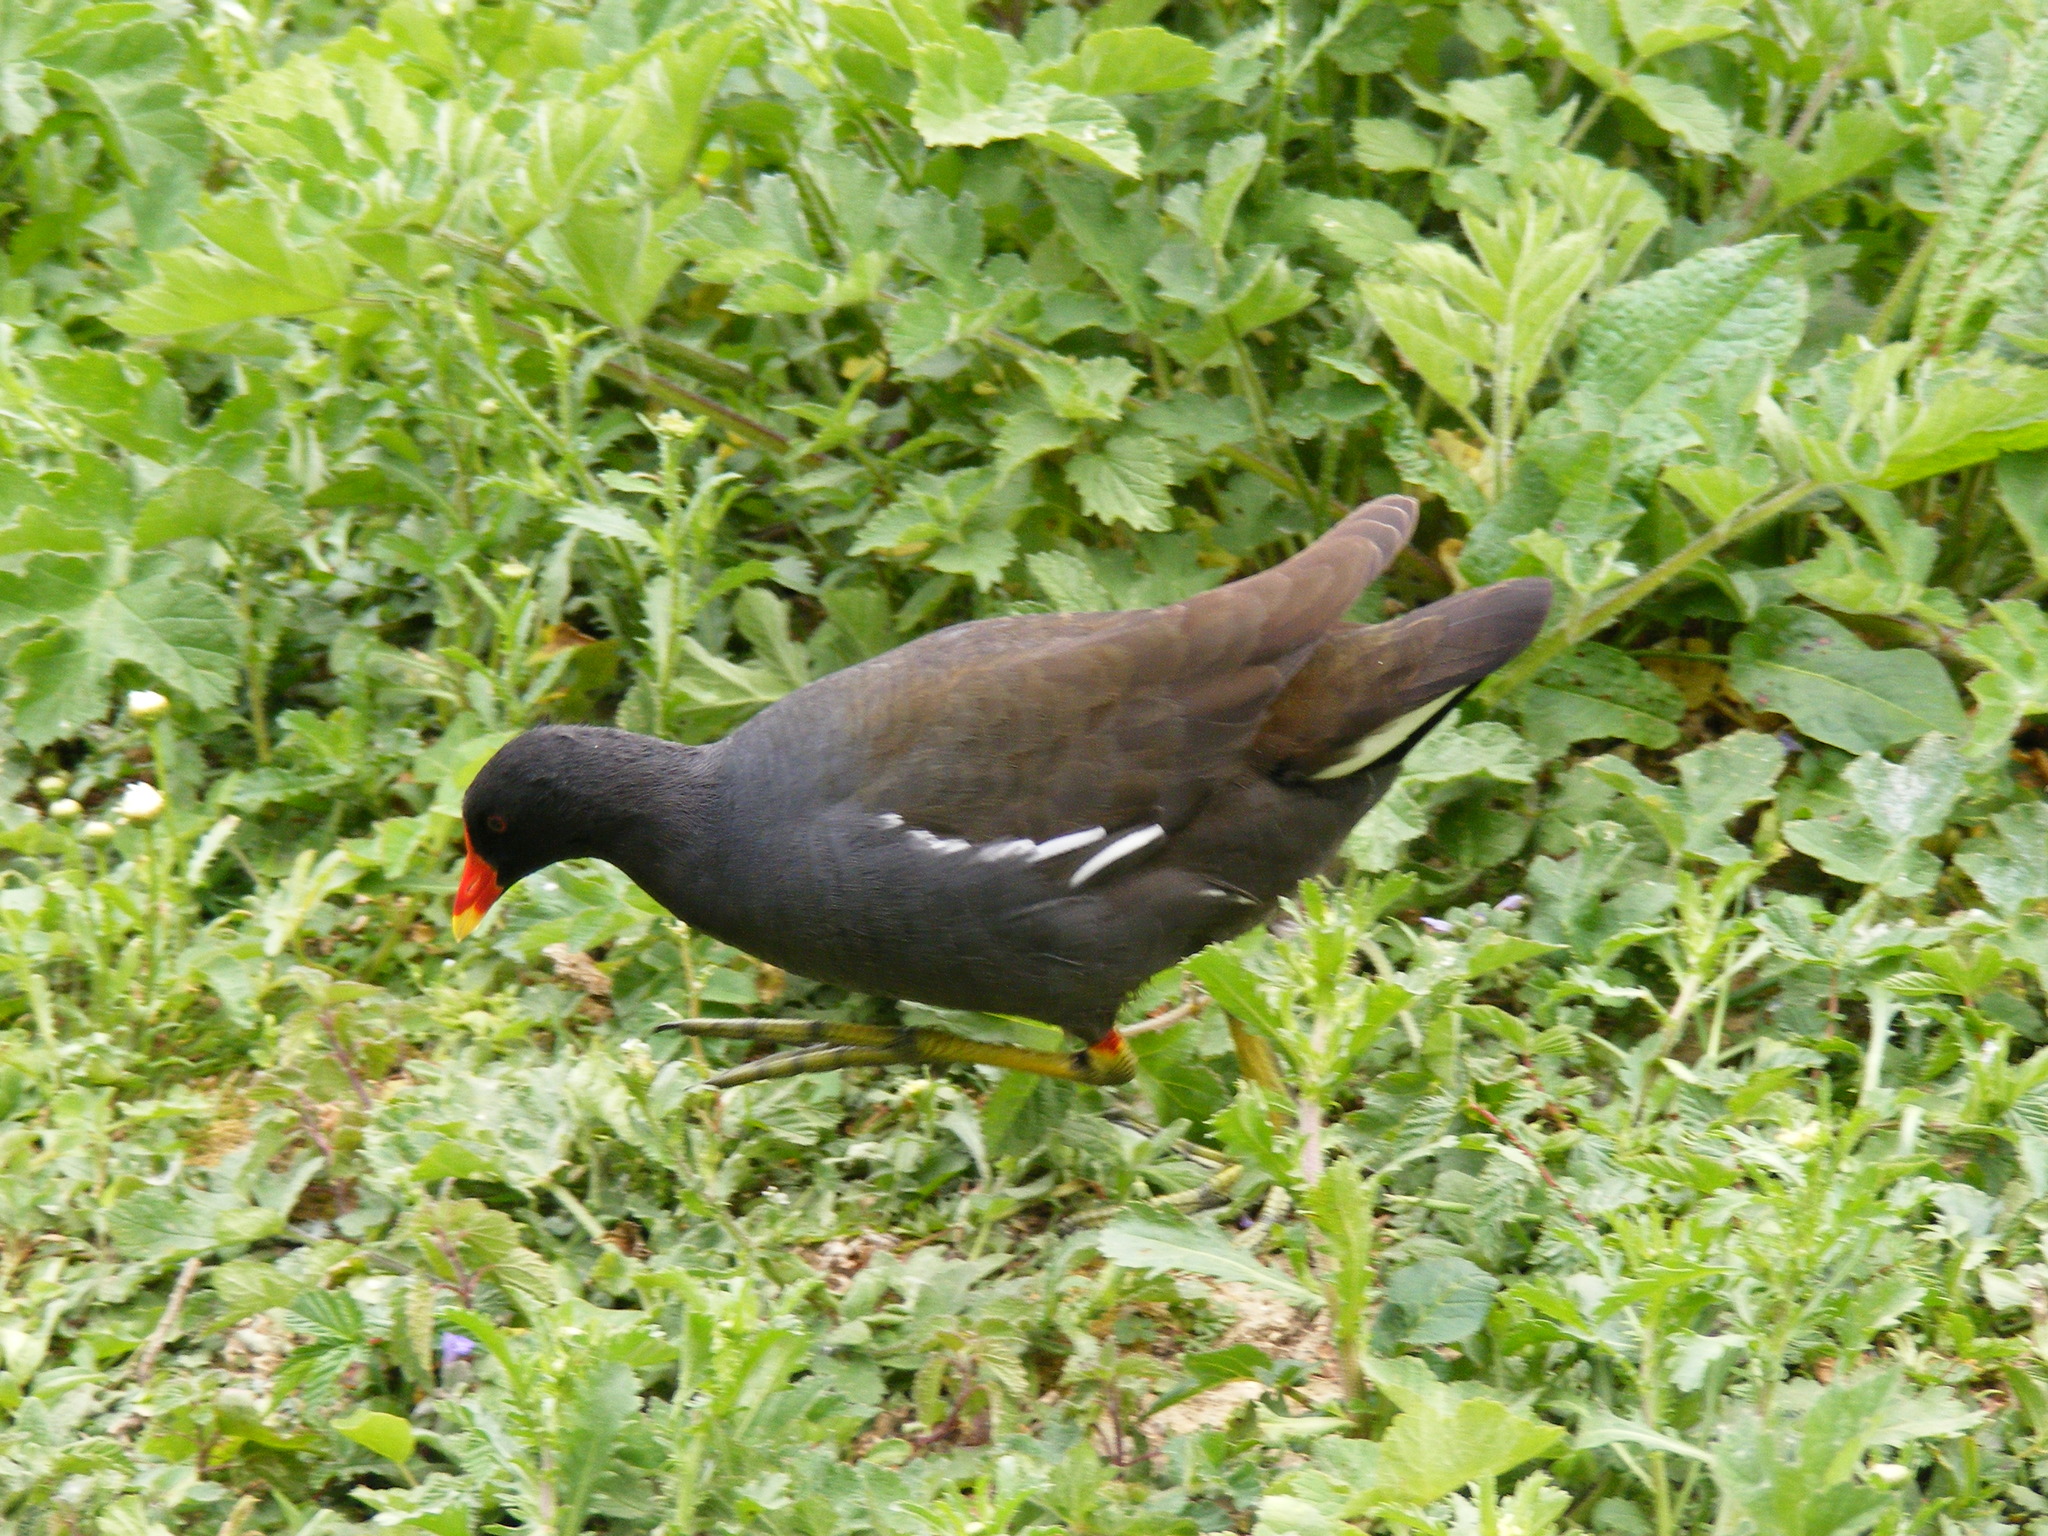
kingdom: Animalia
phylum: Chordata
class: Aves
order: Gruiformes
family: Rallidae
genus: Gallinula
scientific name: Gallinula chloropus
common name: Common moorhen
